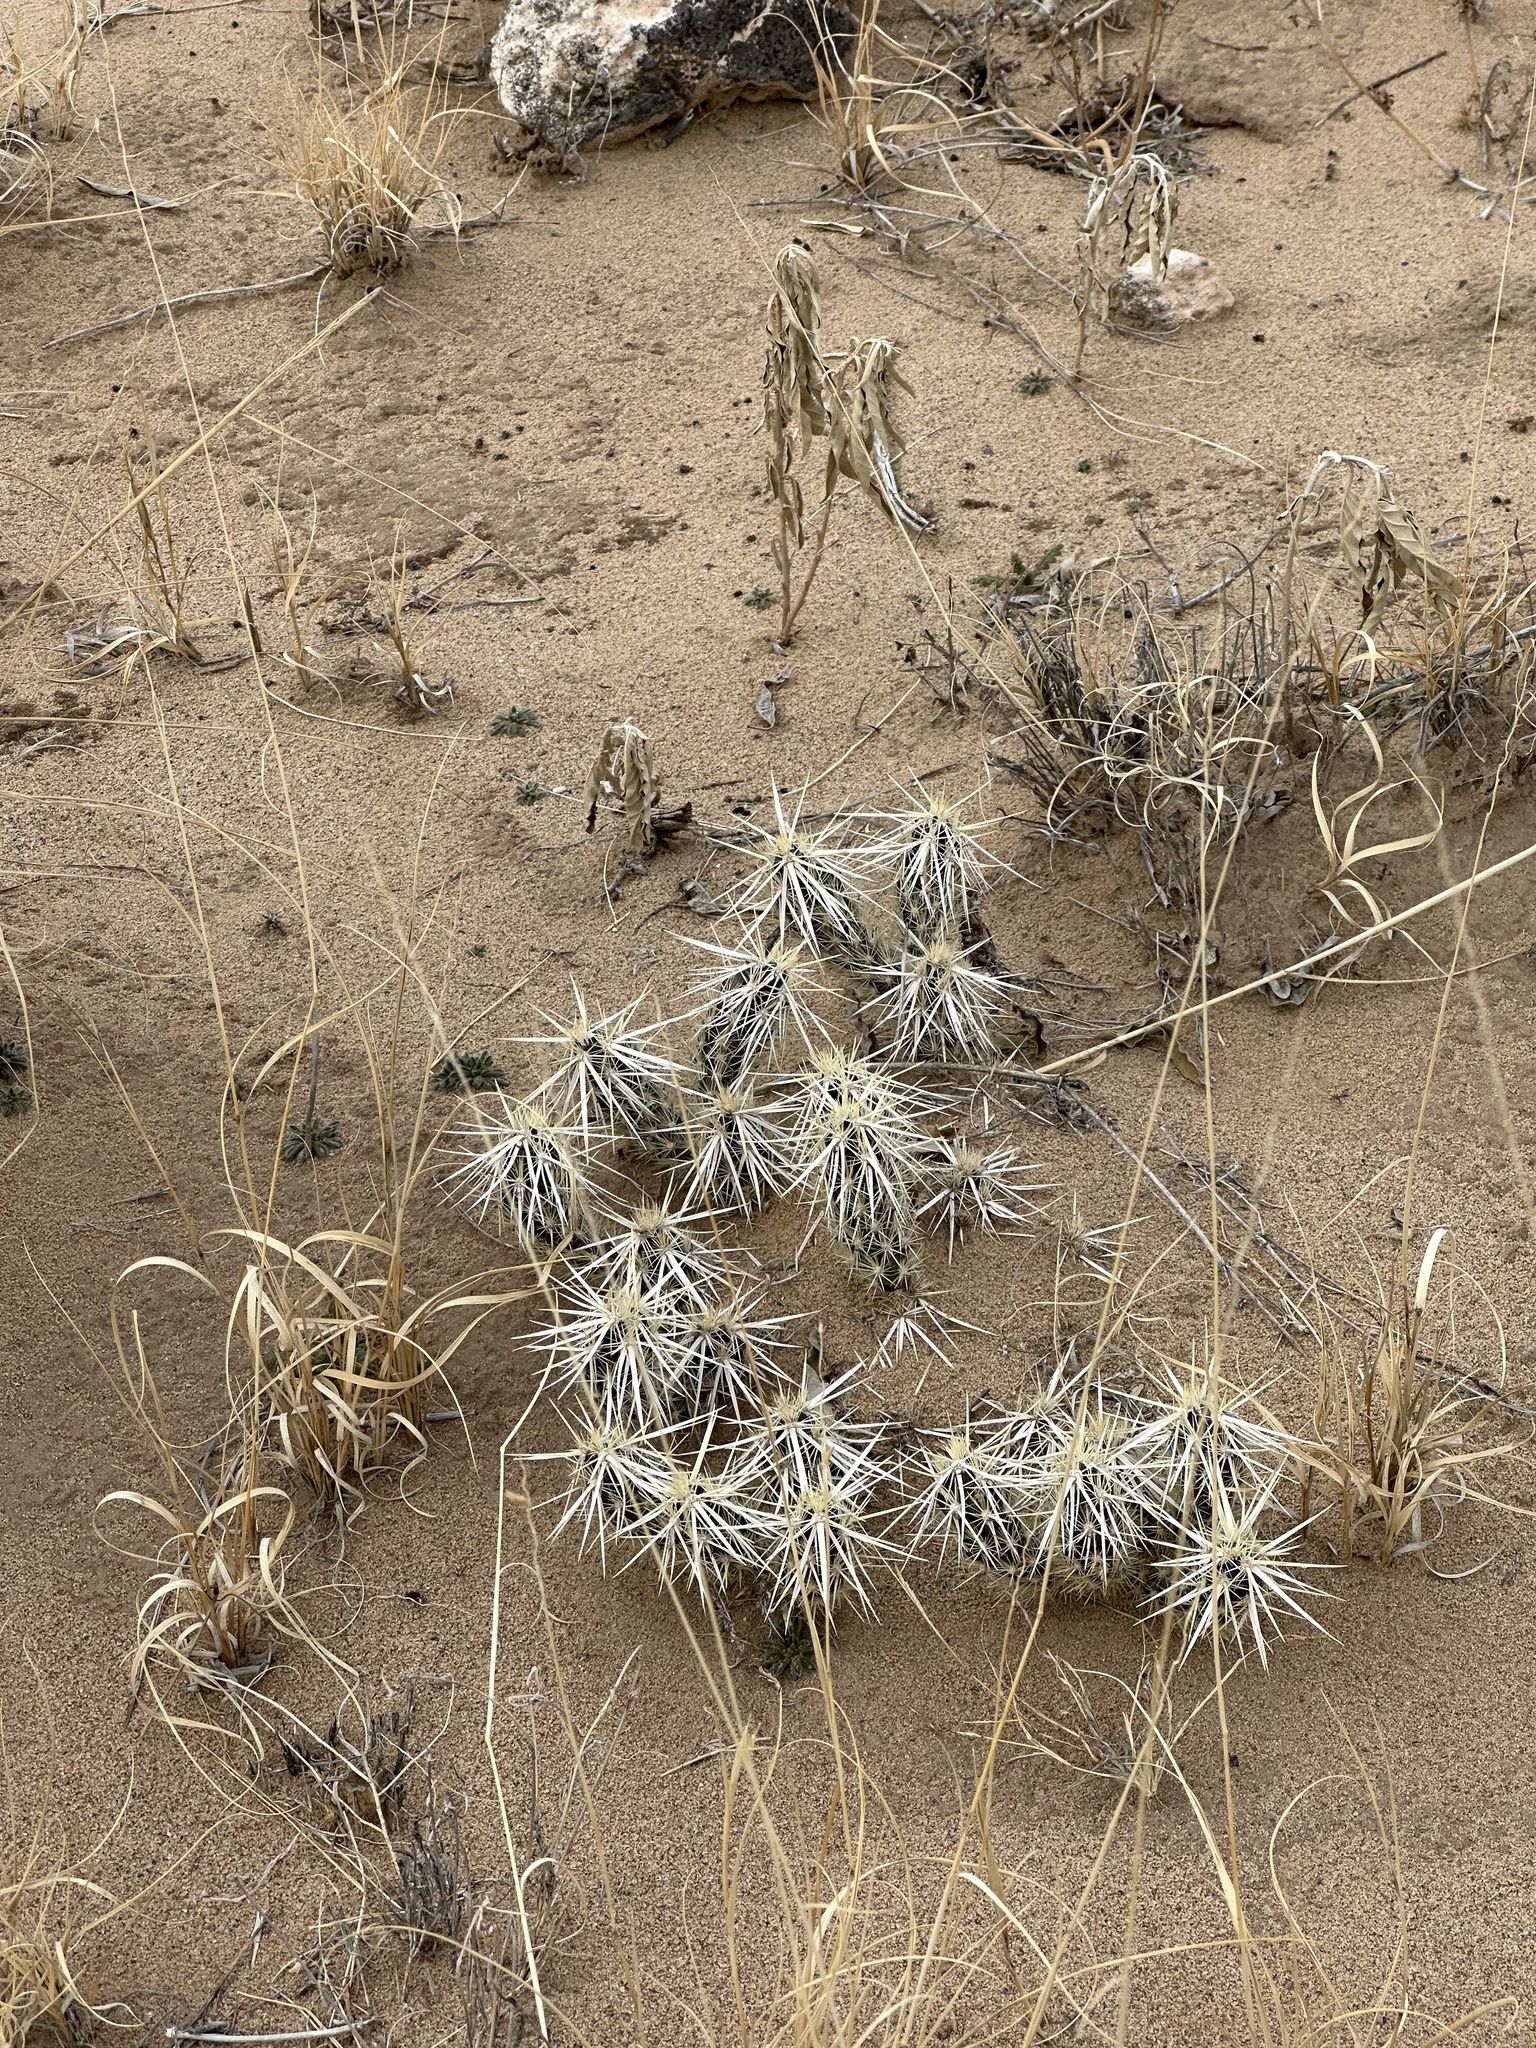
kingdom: Plantae
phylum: Tracheophyta
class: Magnoliopsida
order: Caryophyllales
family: Cactaceae
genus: Grusonia
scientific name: Grusonia clavata
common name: Club cholla
